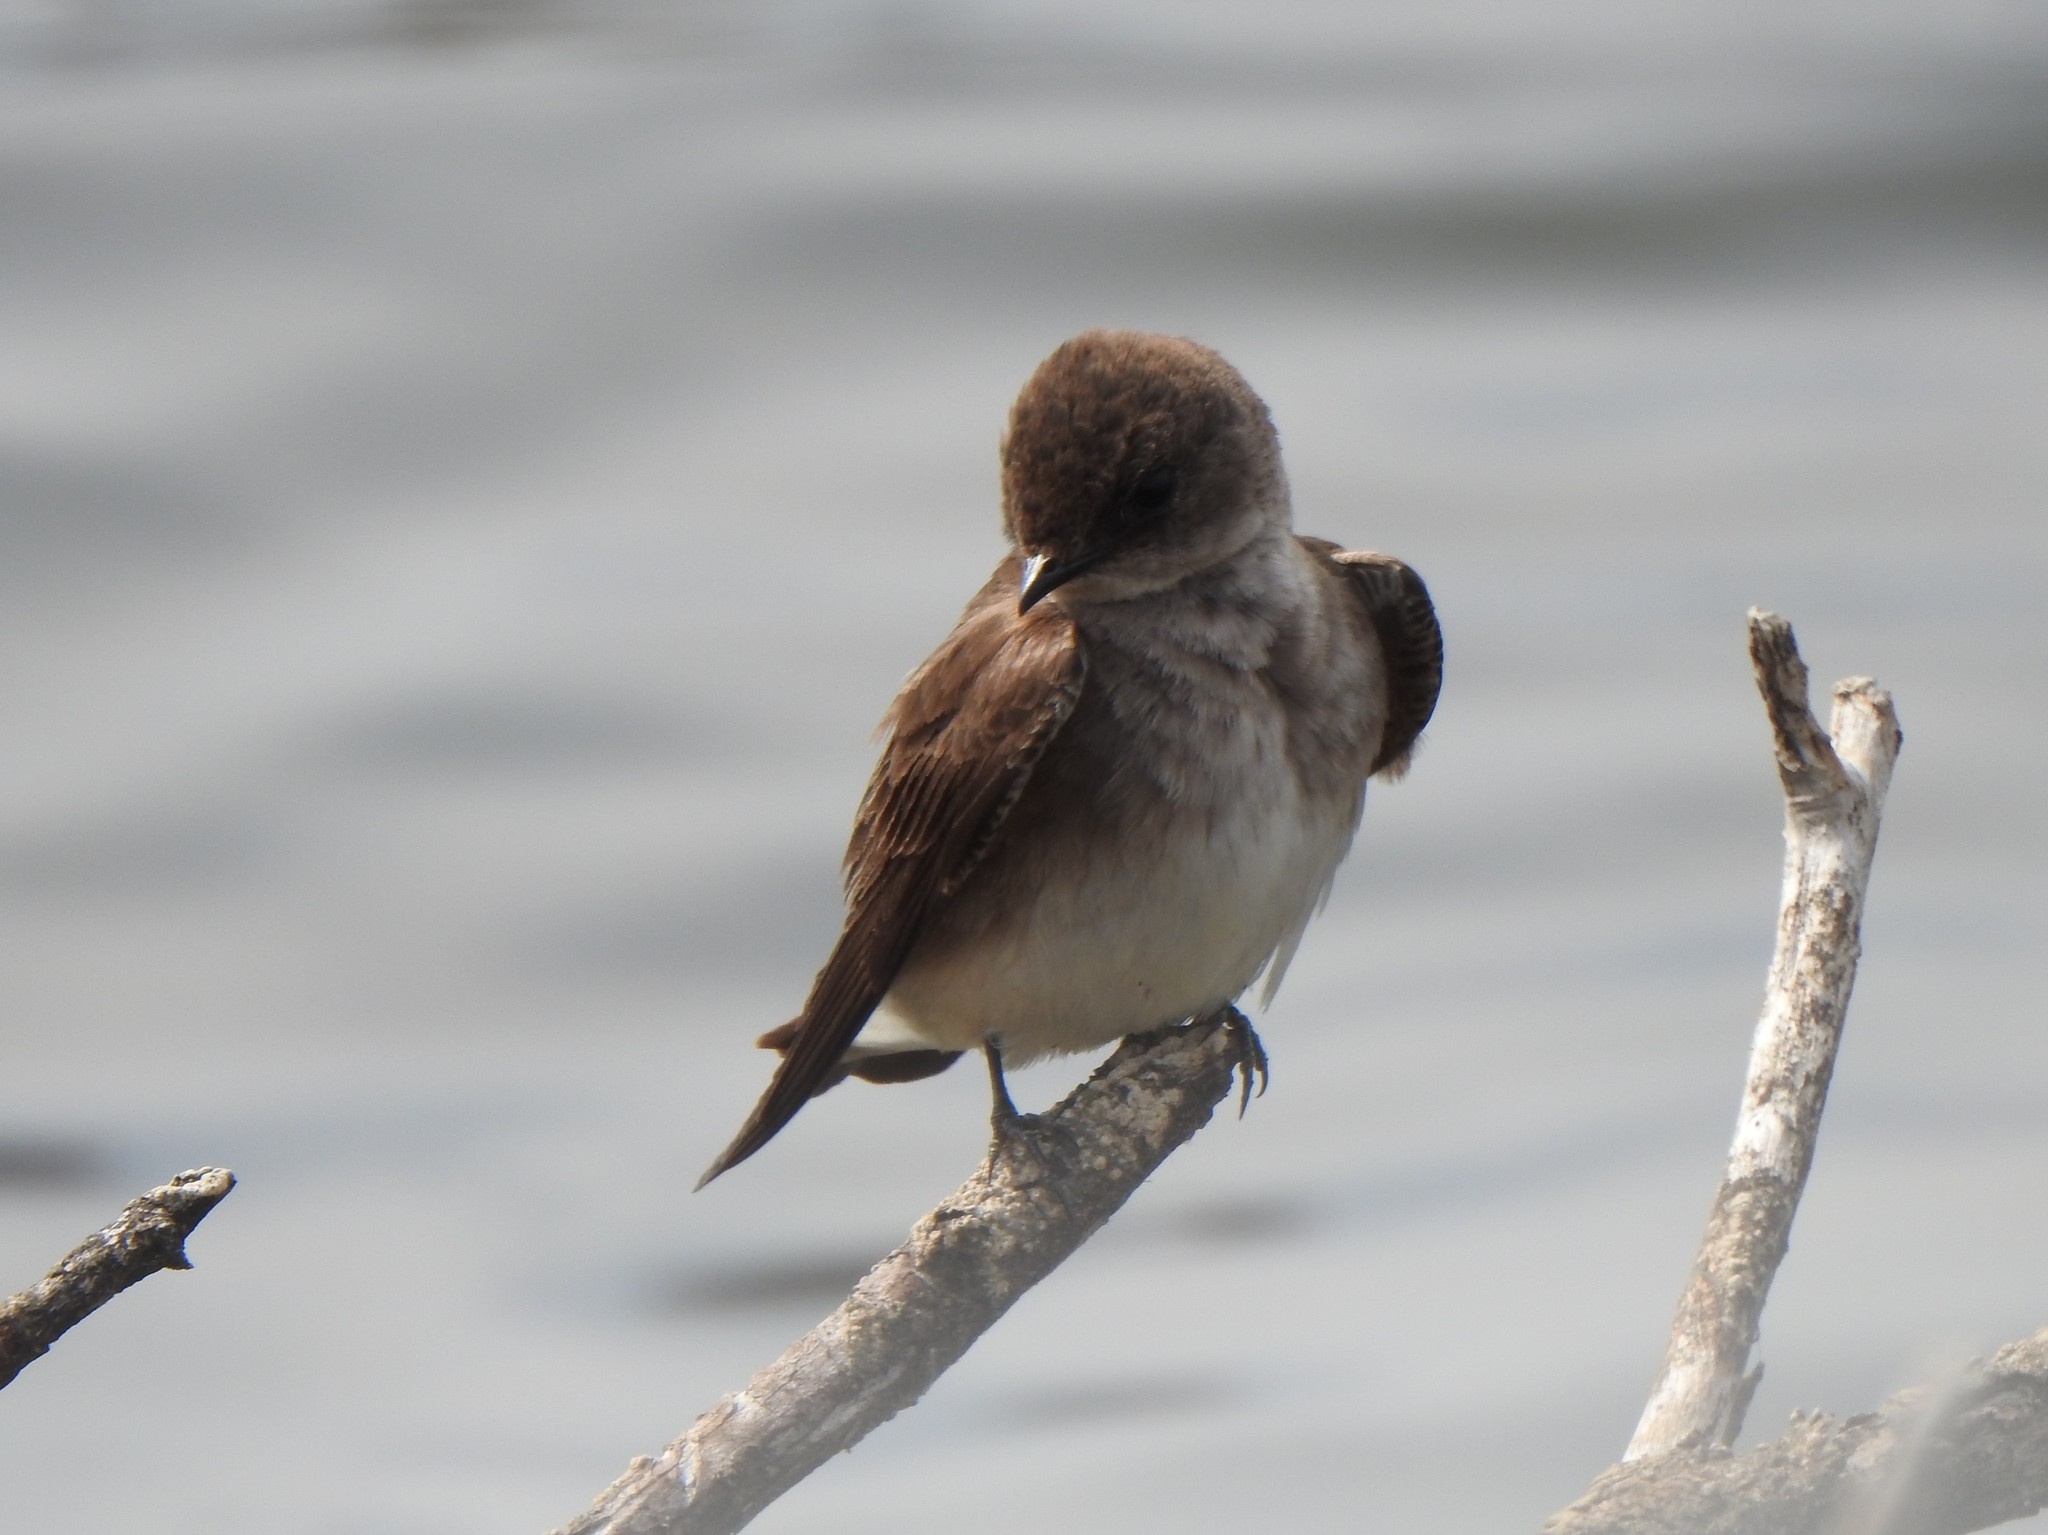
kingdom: Animalia
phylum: Chordata
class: Aves
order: Passeriformes
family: Hirundinidae
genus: Stelgidopteryx
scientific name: Stelgidopteryx serripennis
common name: Northern rough-winged swallow
